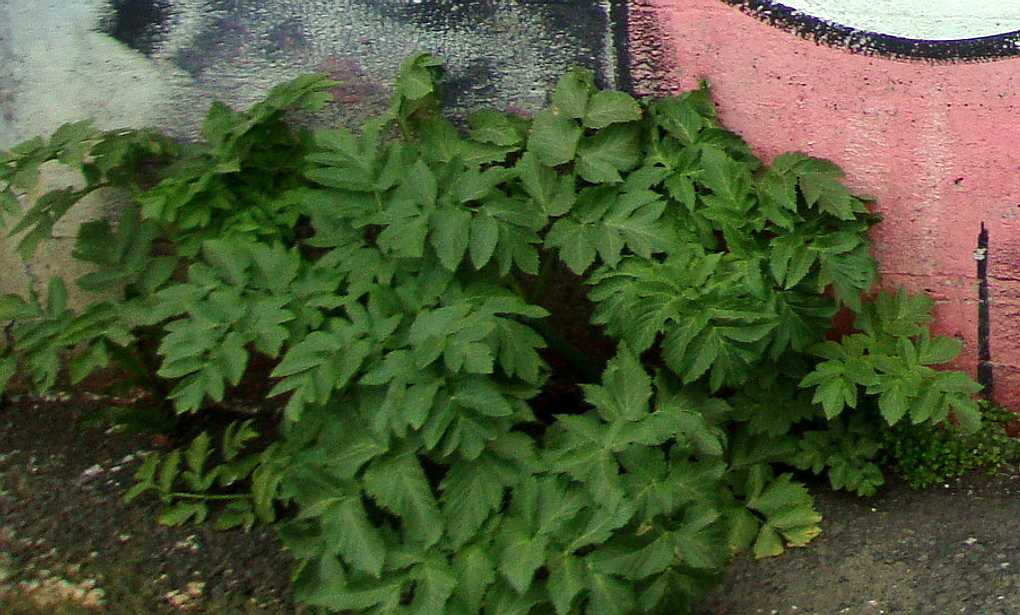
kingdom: Plantae
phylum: Tracheophyta
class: Magnoliopsida
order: Apiales
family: Apiaceae
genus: Angelica
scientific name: Angelica archangelica
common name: Garden angelica
